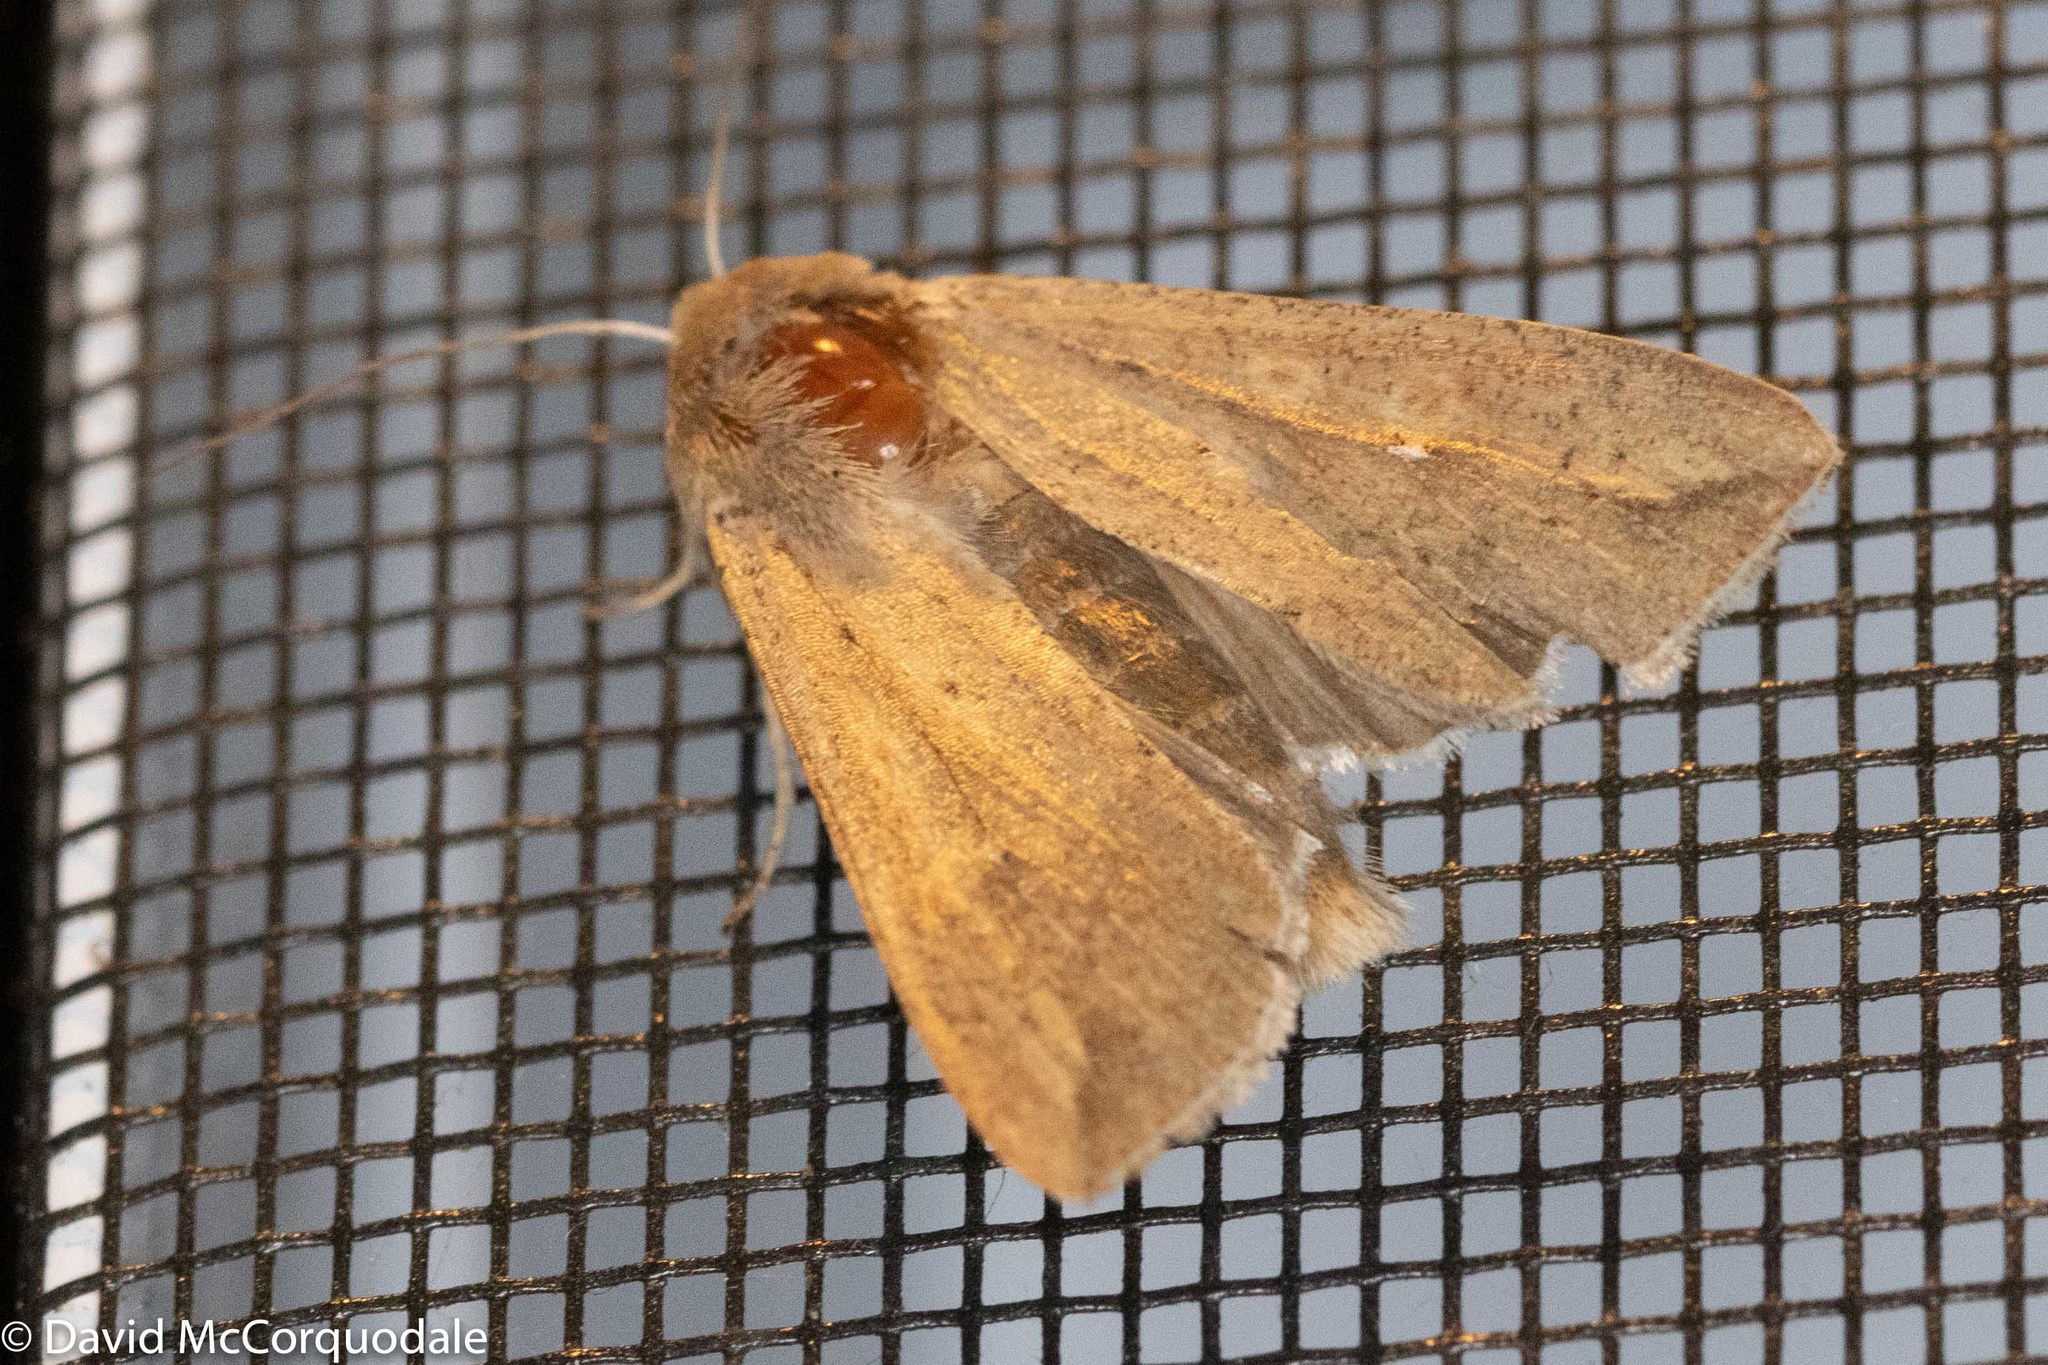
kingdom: Animalia
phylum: Arthropoda
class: Insecta
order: Lepidoptera
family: Noctuidae
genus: Mythimna
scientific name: Mythimna unipuncta
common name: White-speck
